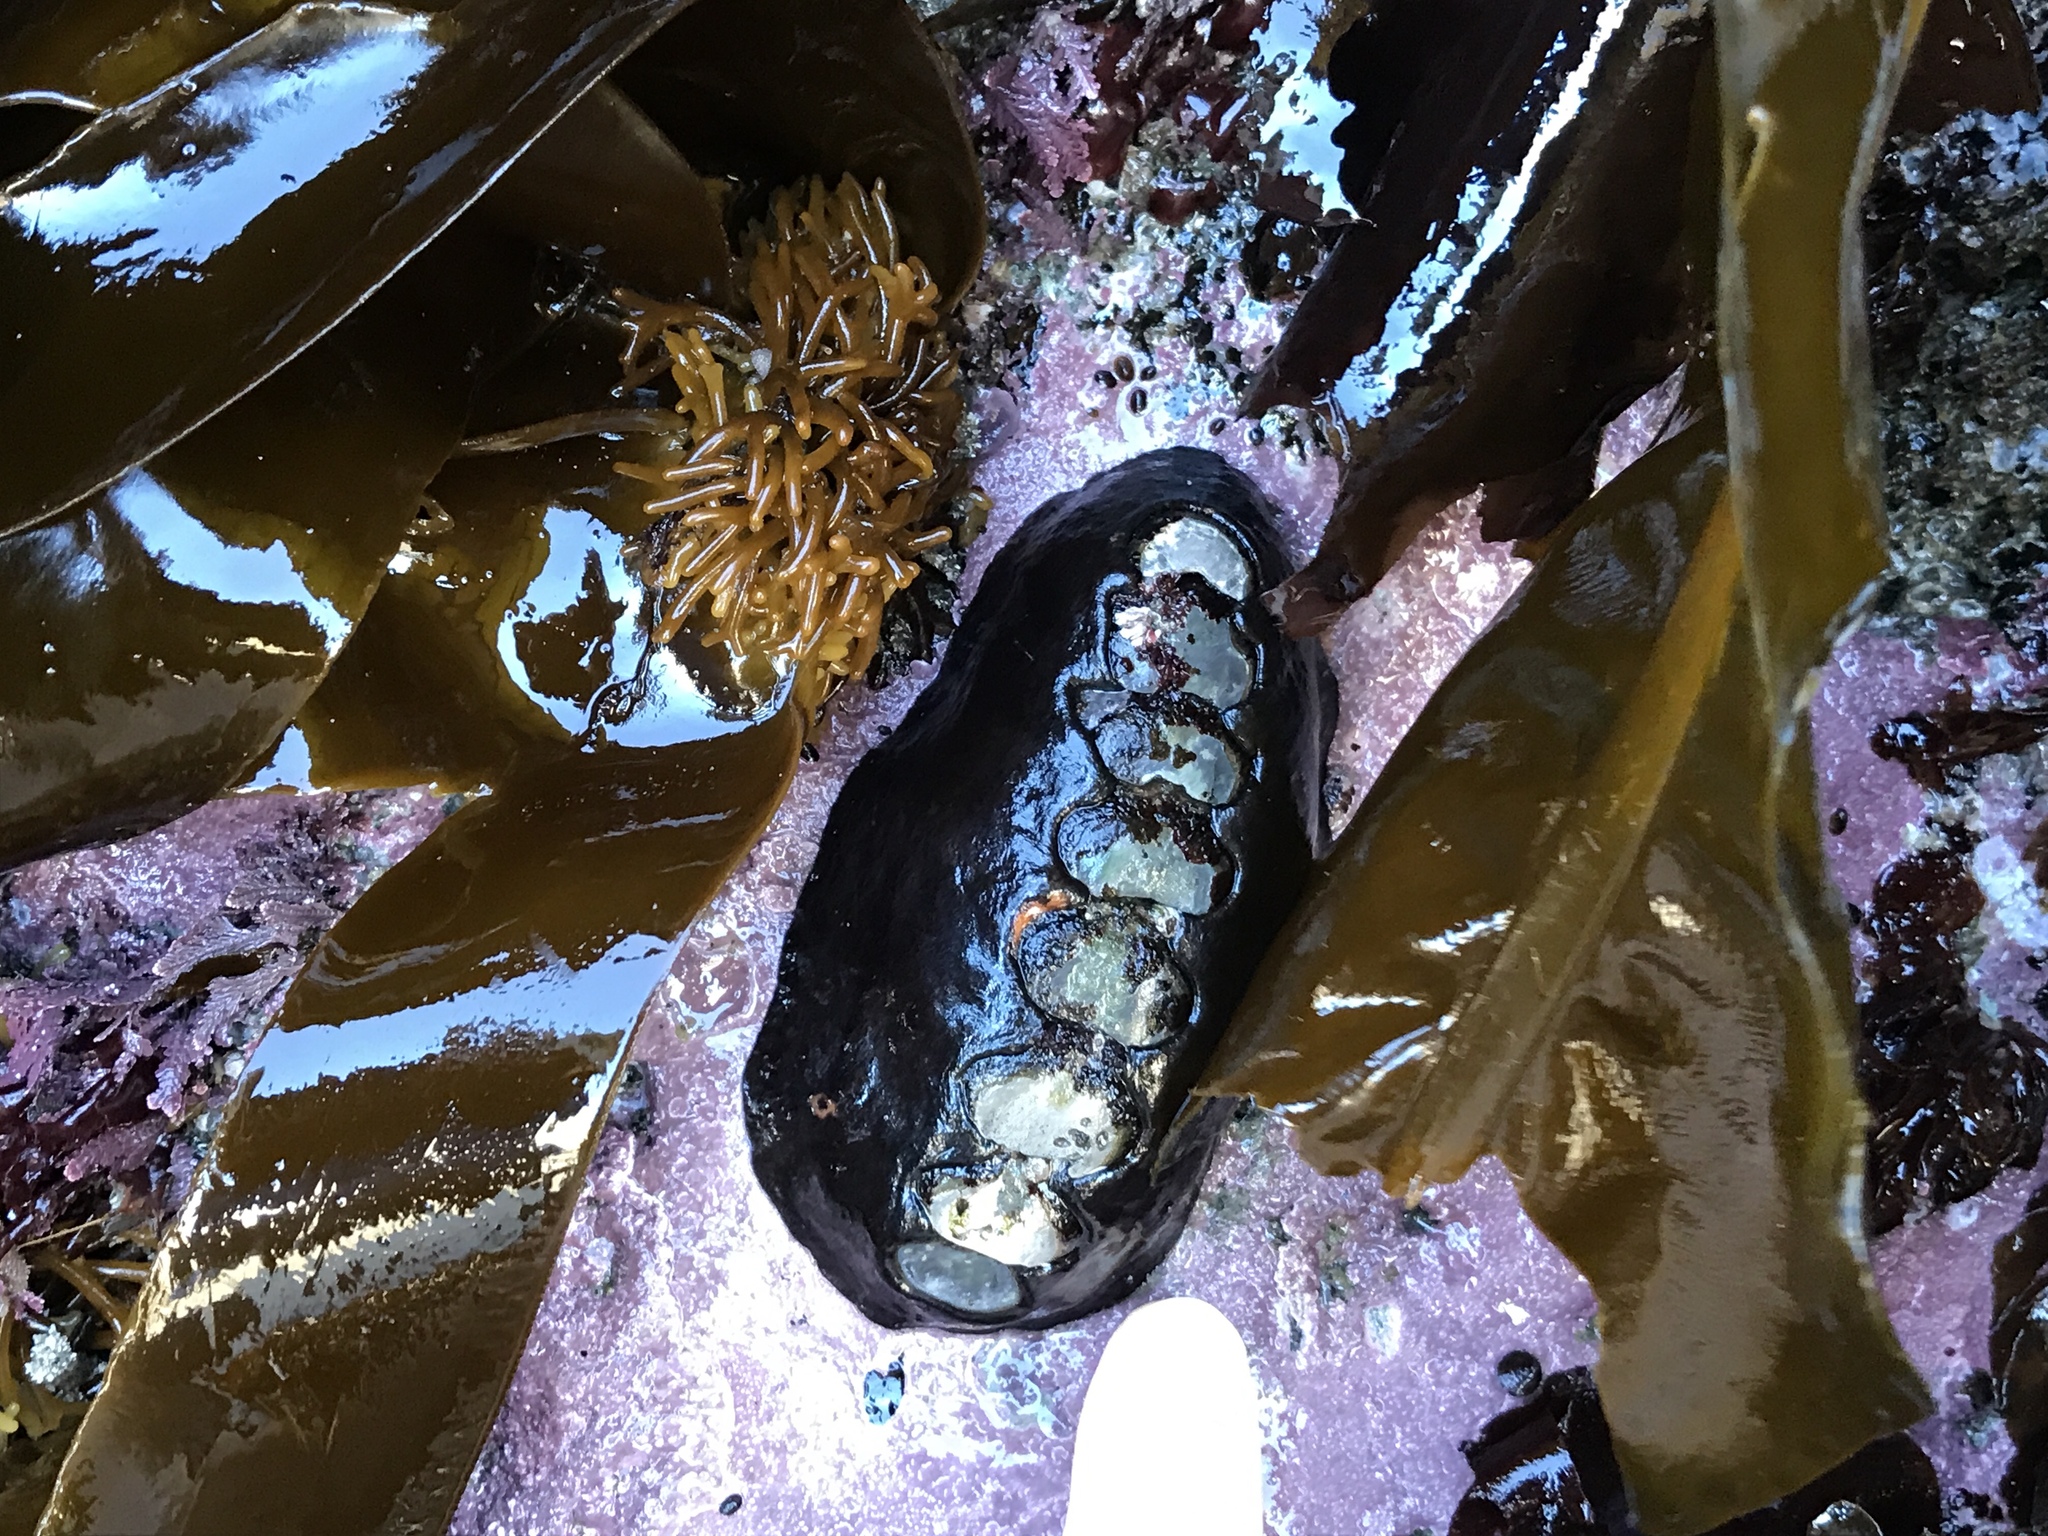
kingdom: Animalia
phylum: Mollusca
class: Polyplacophora
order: Chitonida
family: Mopaliidae
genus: Katharina
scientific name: Katharina tunicata
